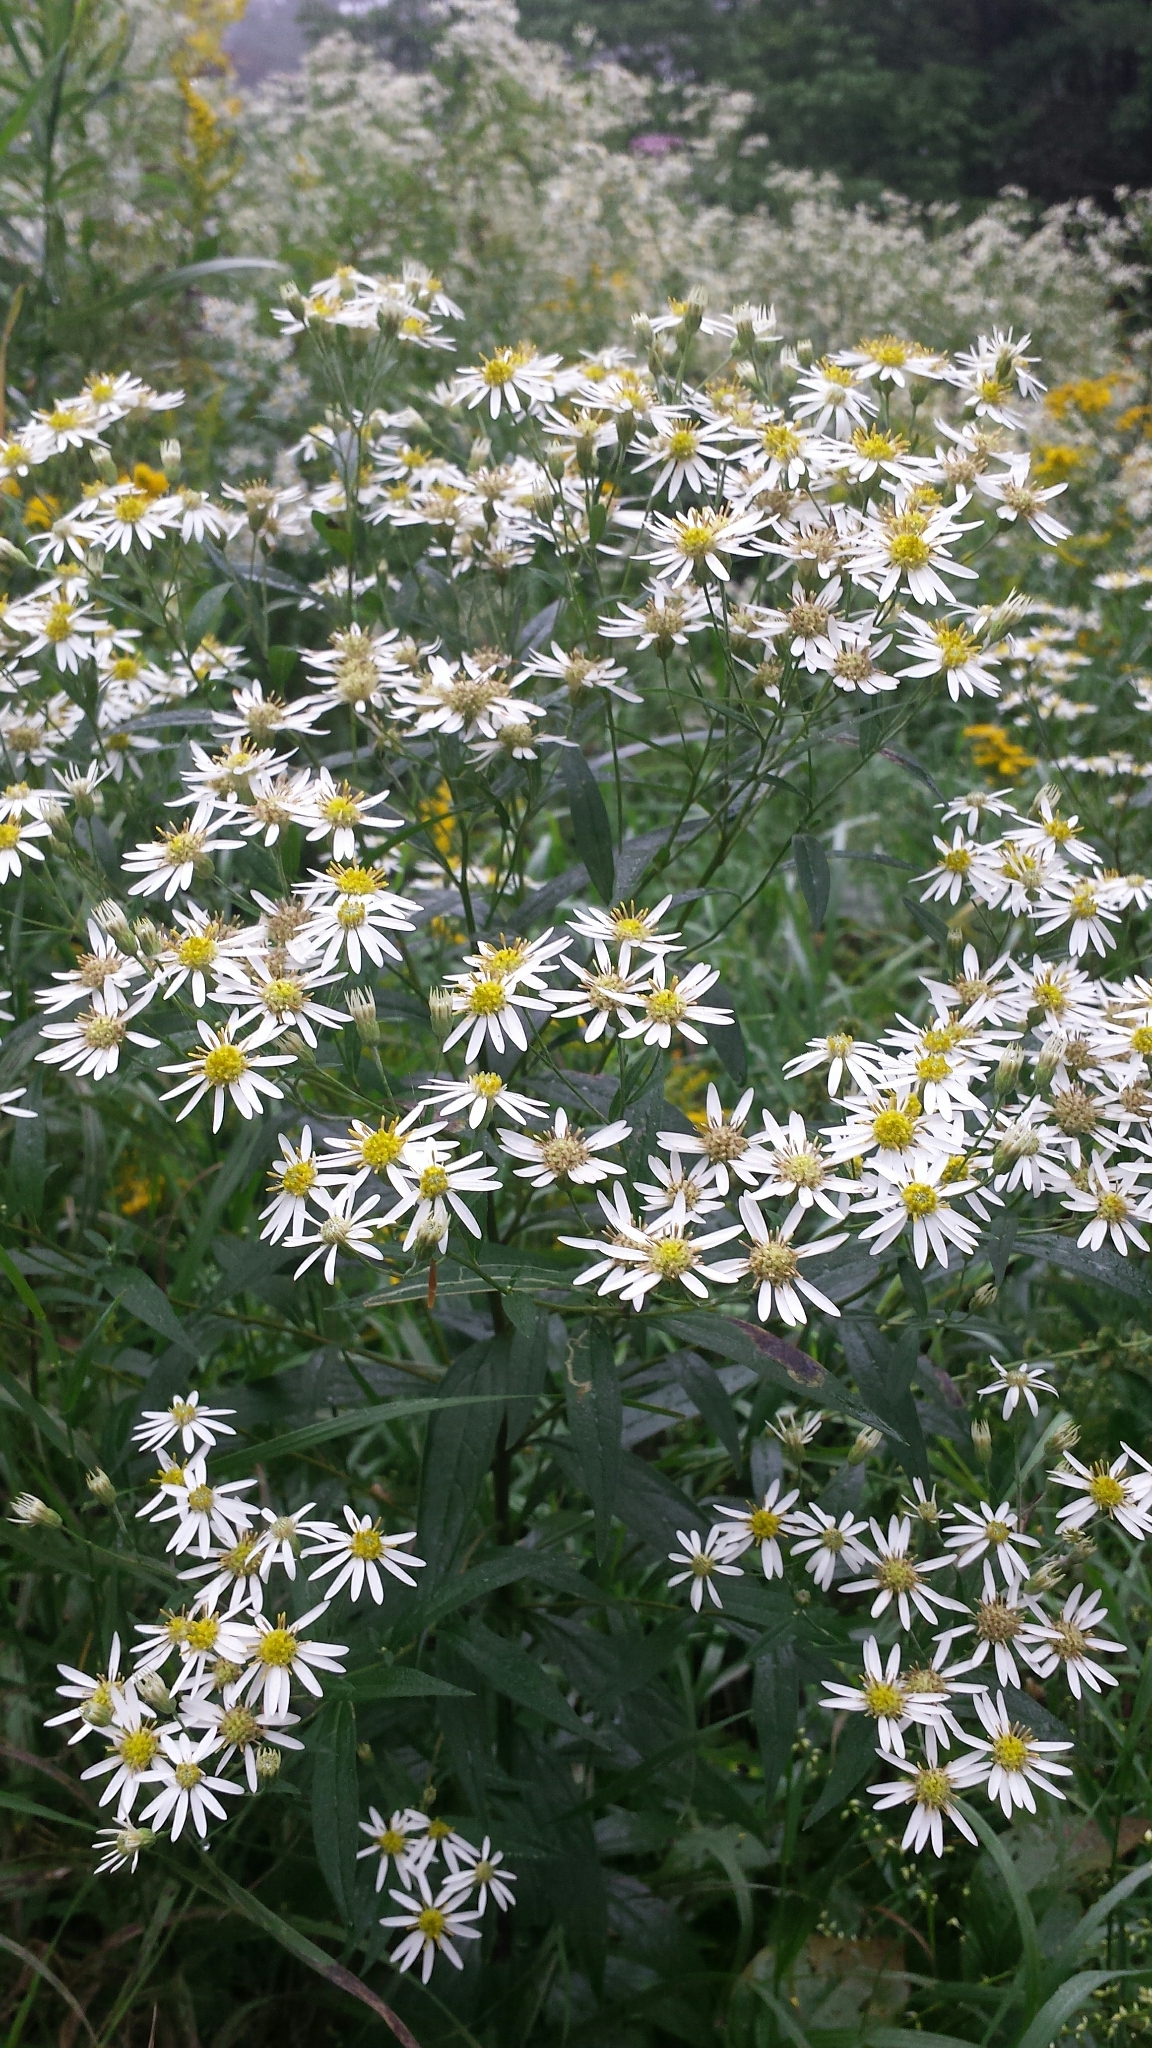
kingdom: Plantae
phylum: Tracheophyta
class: Magnoliopsida
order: Asterales
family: Asteraceae
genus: Doellingeria
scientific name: Doellingeria umbellata
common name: Flat-top white aster
